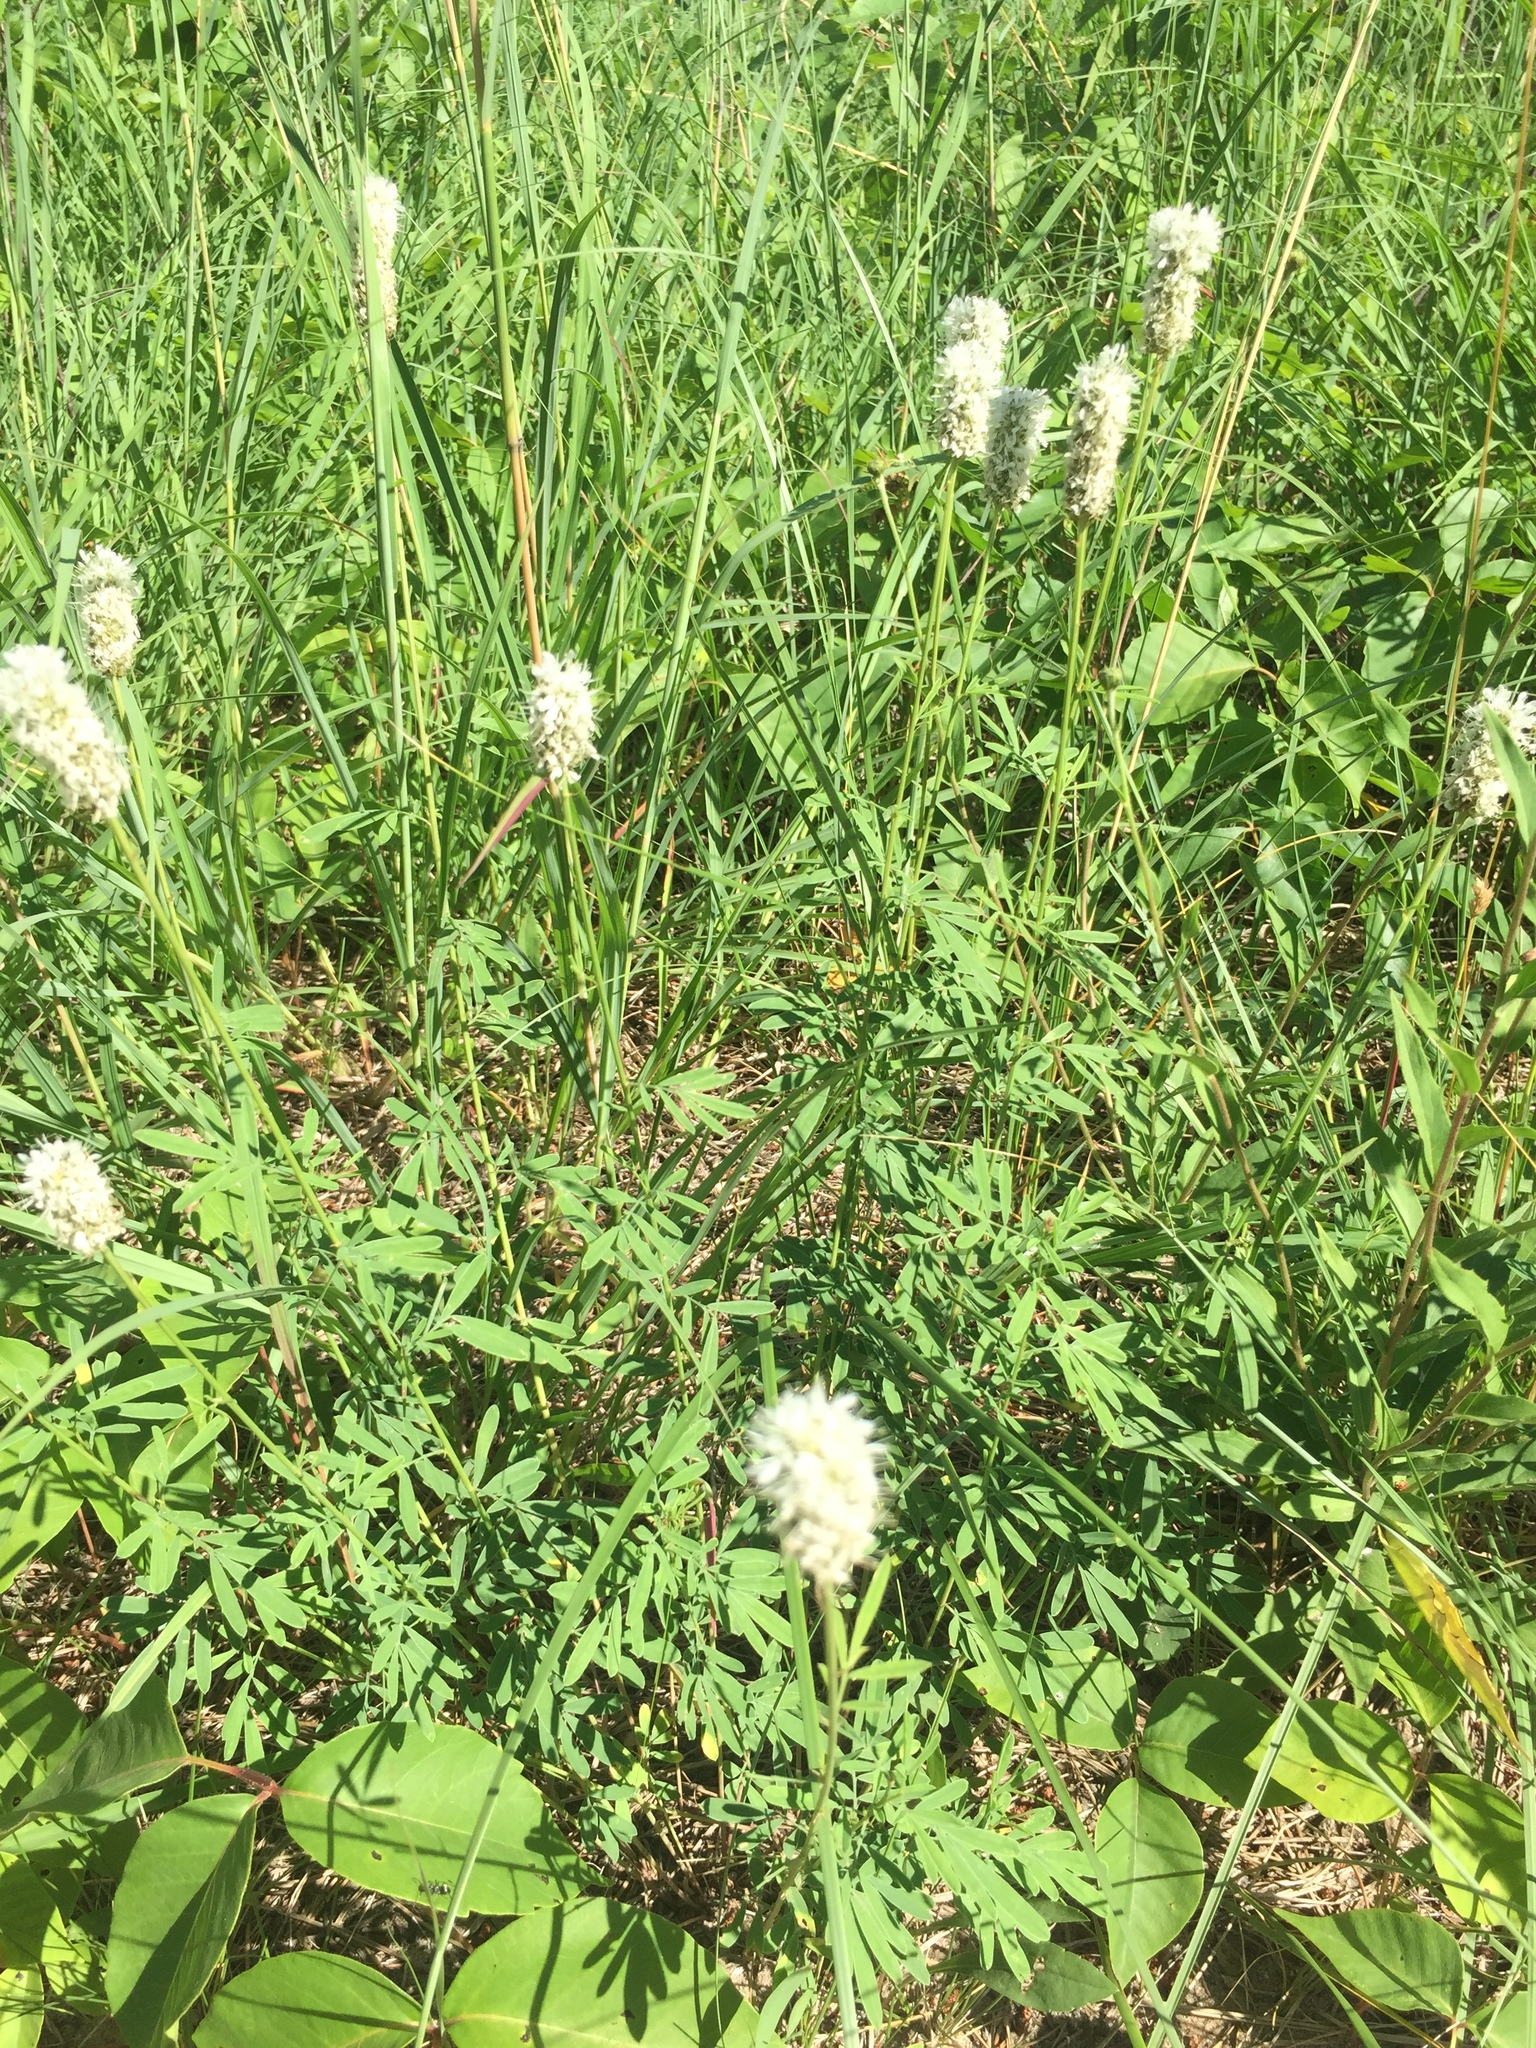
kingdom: Plantae
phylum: Tracheophyta
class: Magnoliopsida
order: Fabales
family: Fabaceae
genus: Dalea
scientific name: Dalea candida
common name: White prairie-clover
